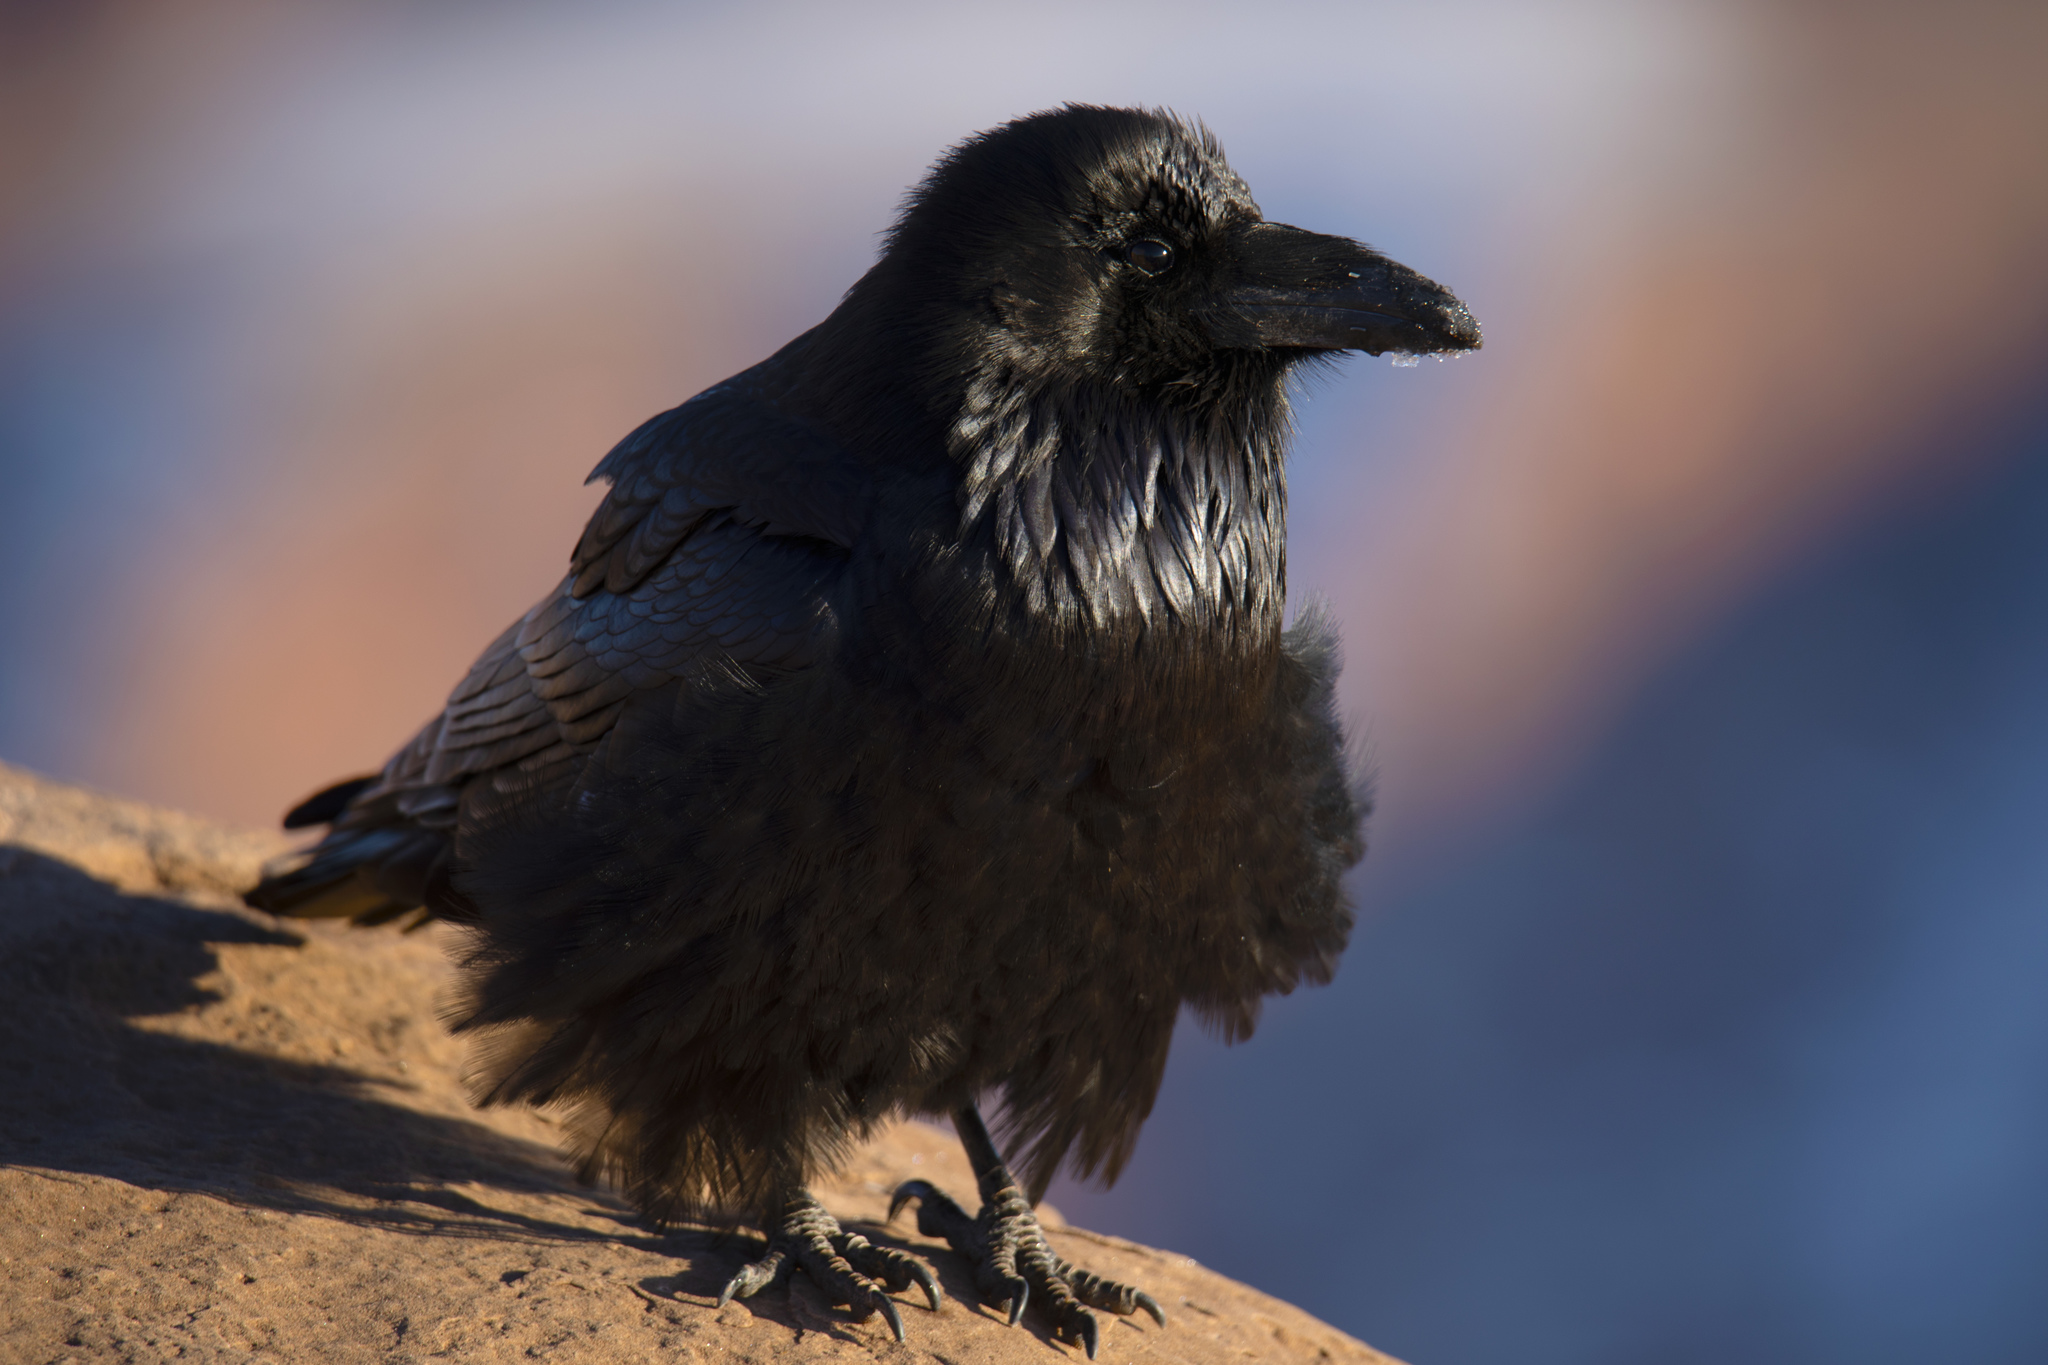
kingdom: Animalia
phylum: Chordata
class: Aves
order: Passeriformes
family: Corvidae
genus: Corvus
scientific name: Corvus corax
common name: Common raven
